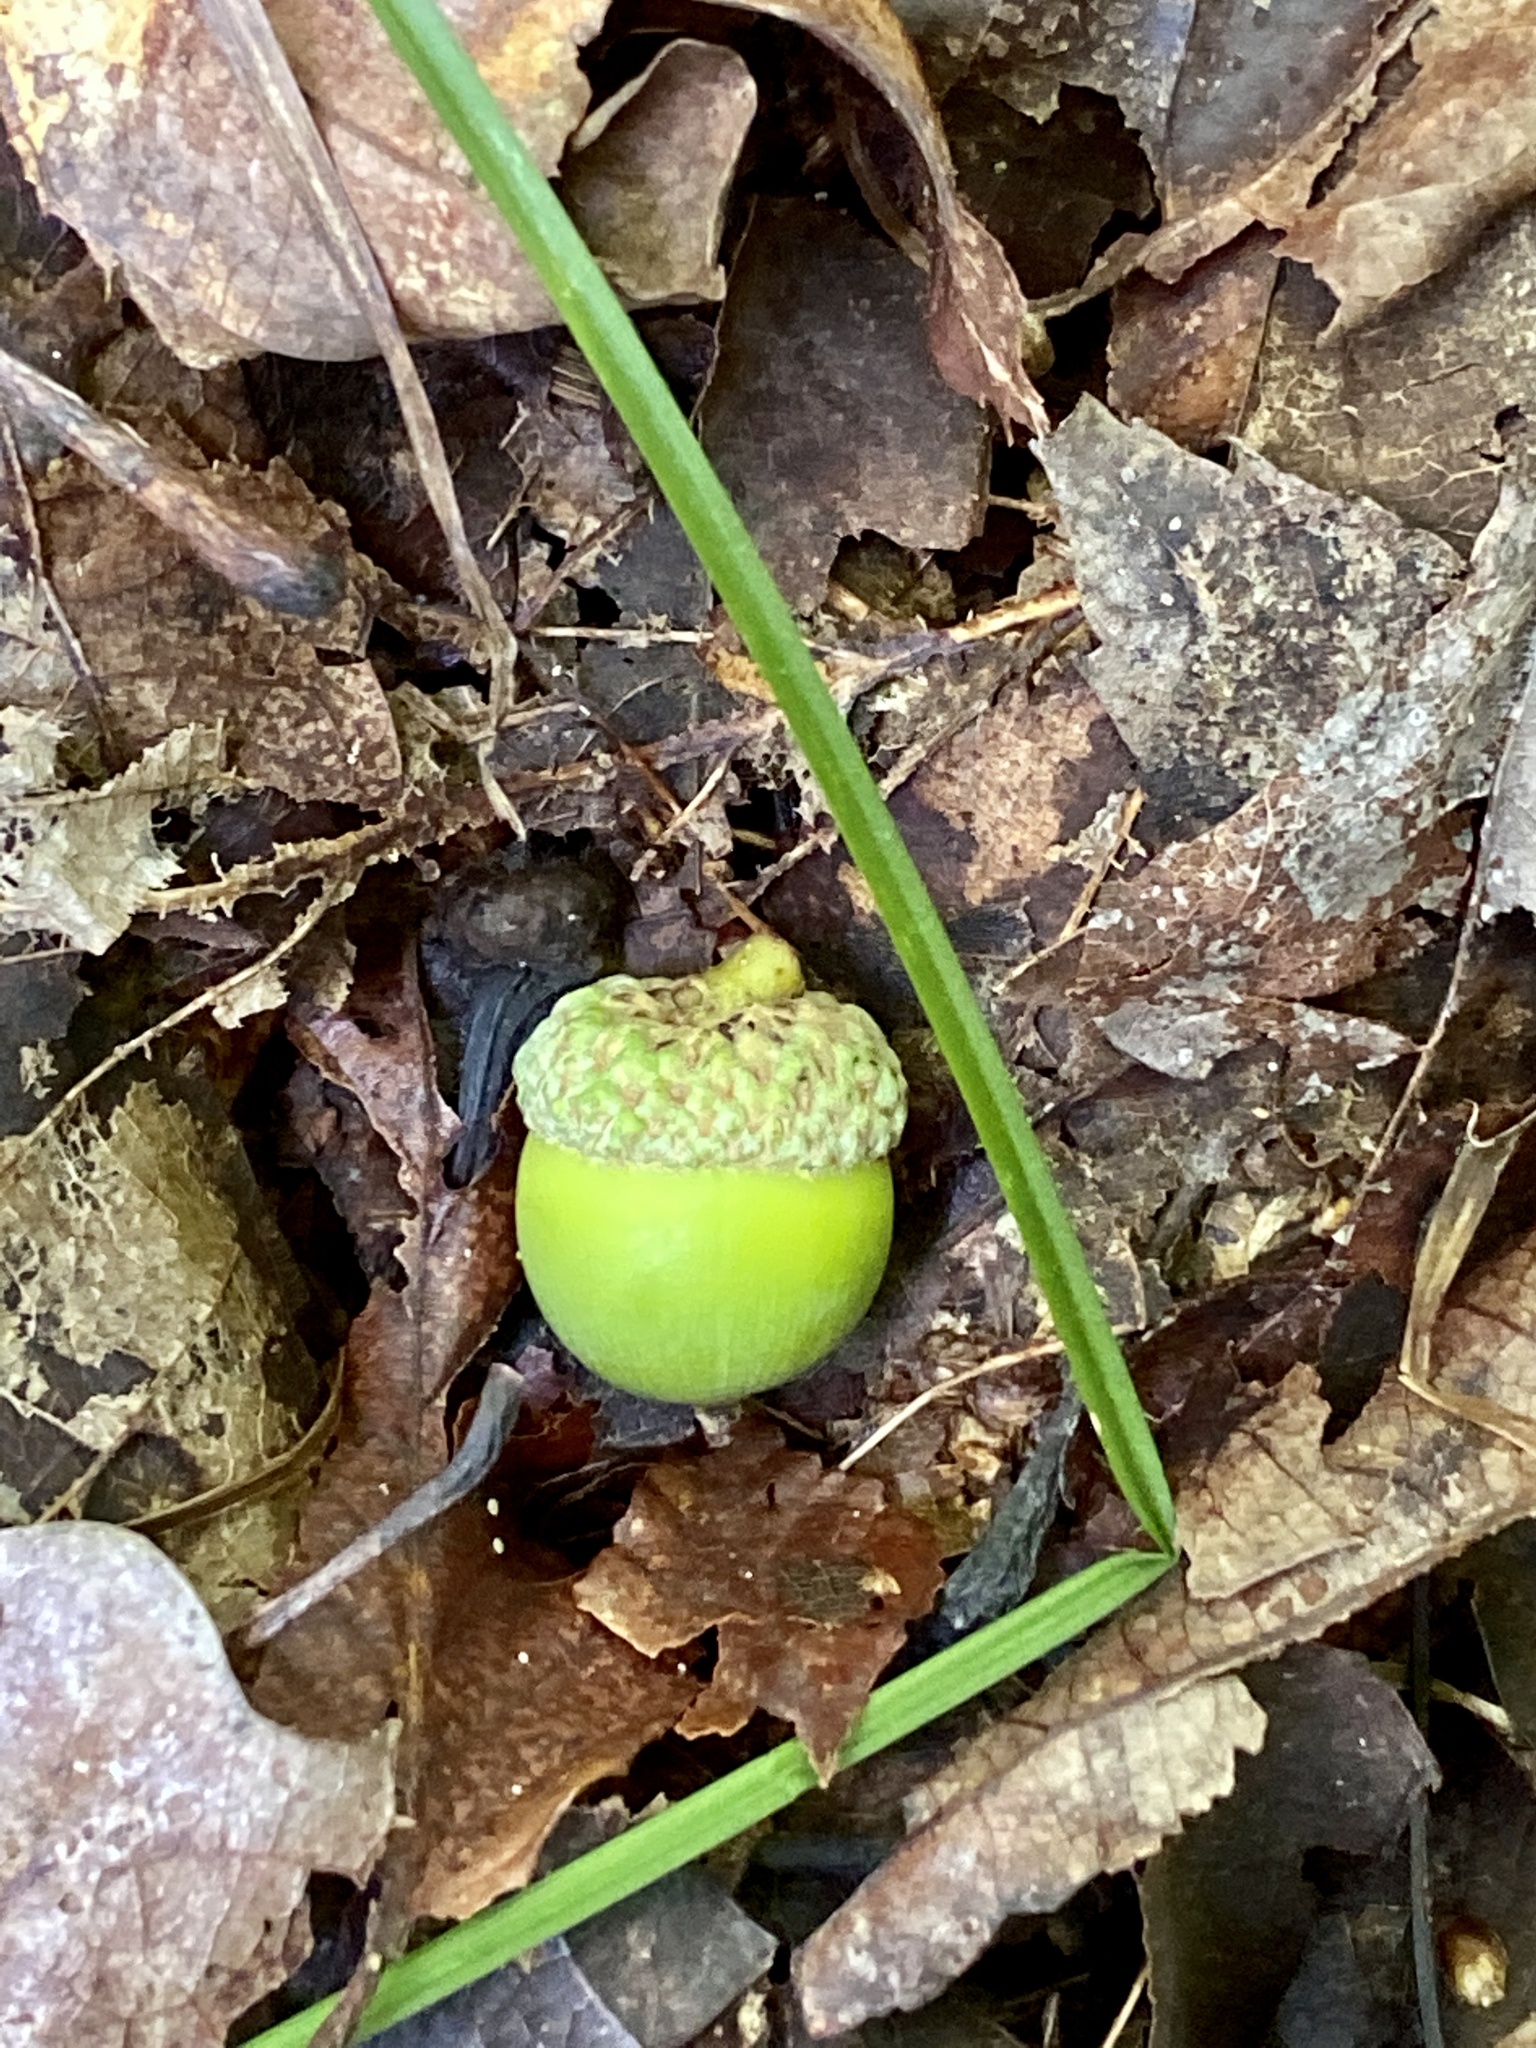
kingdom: Plantae
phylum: Tracheophyta
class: Magnoliopsida
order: Fagales
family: Fagaceae
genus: Quercus
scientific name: Quercus alba
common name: White oak
